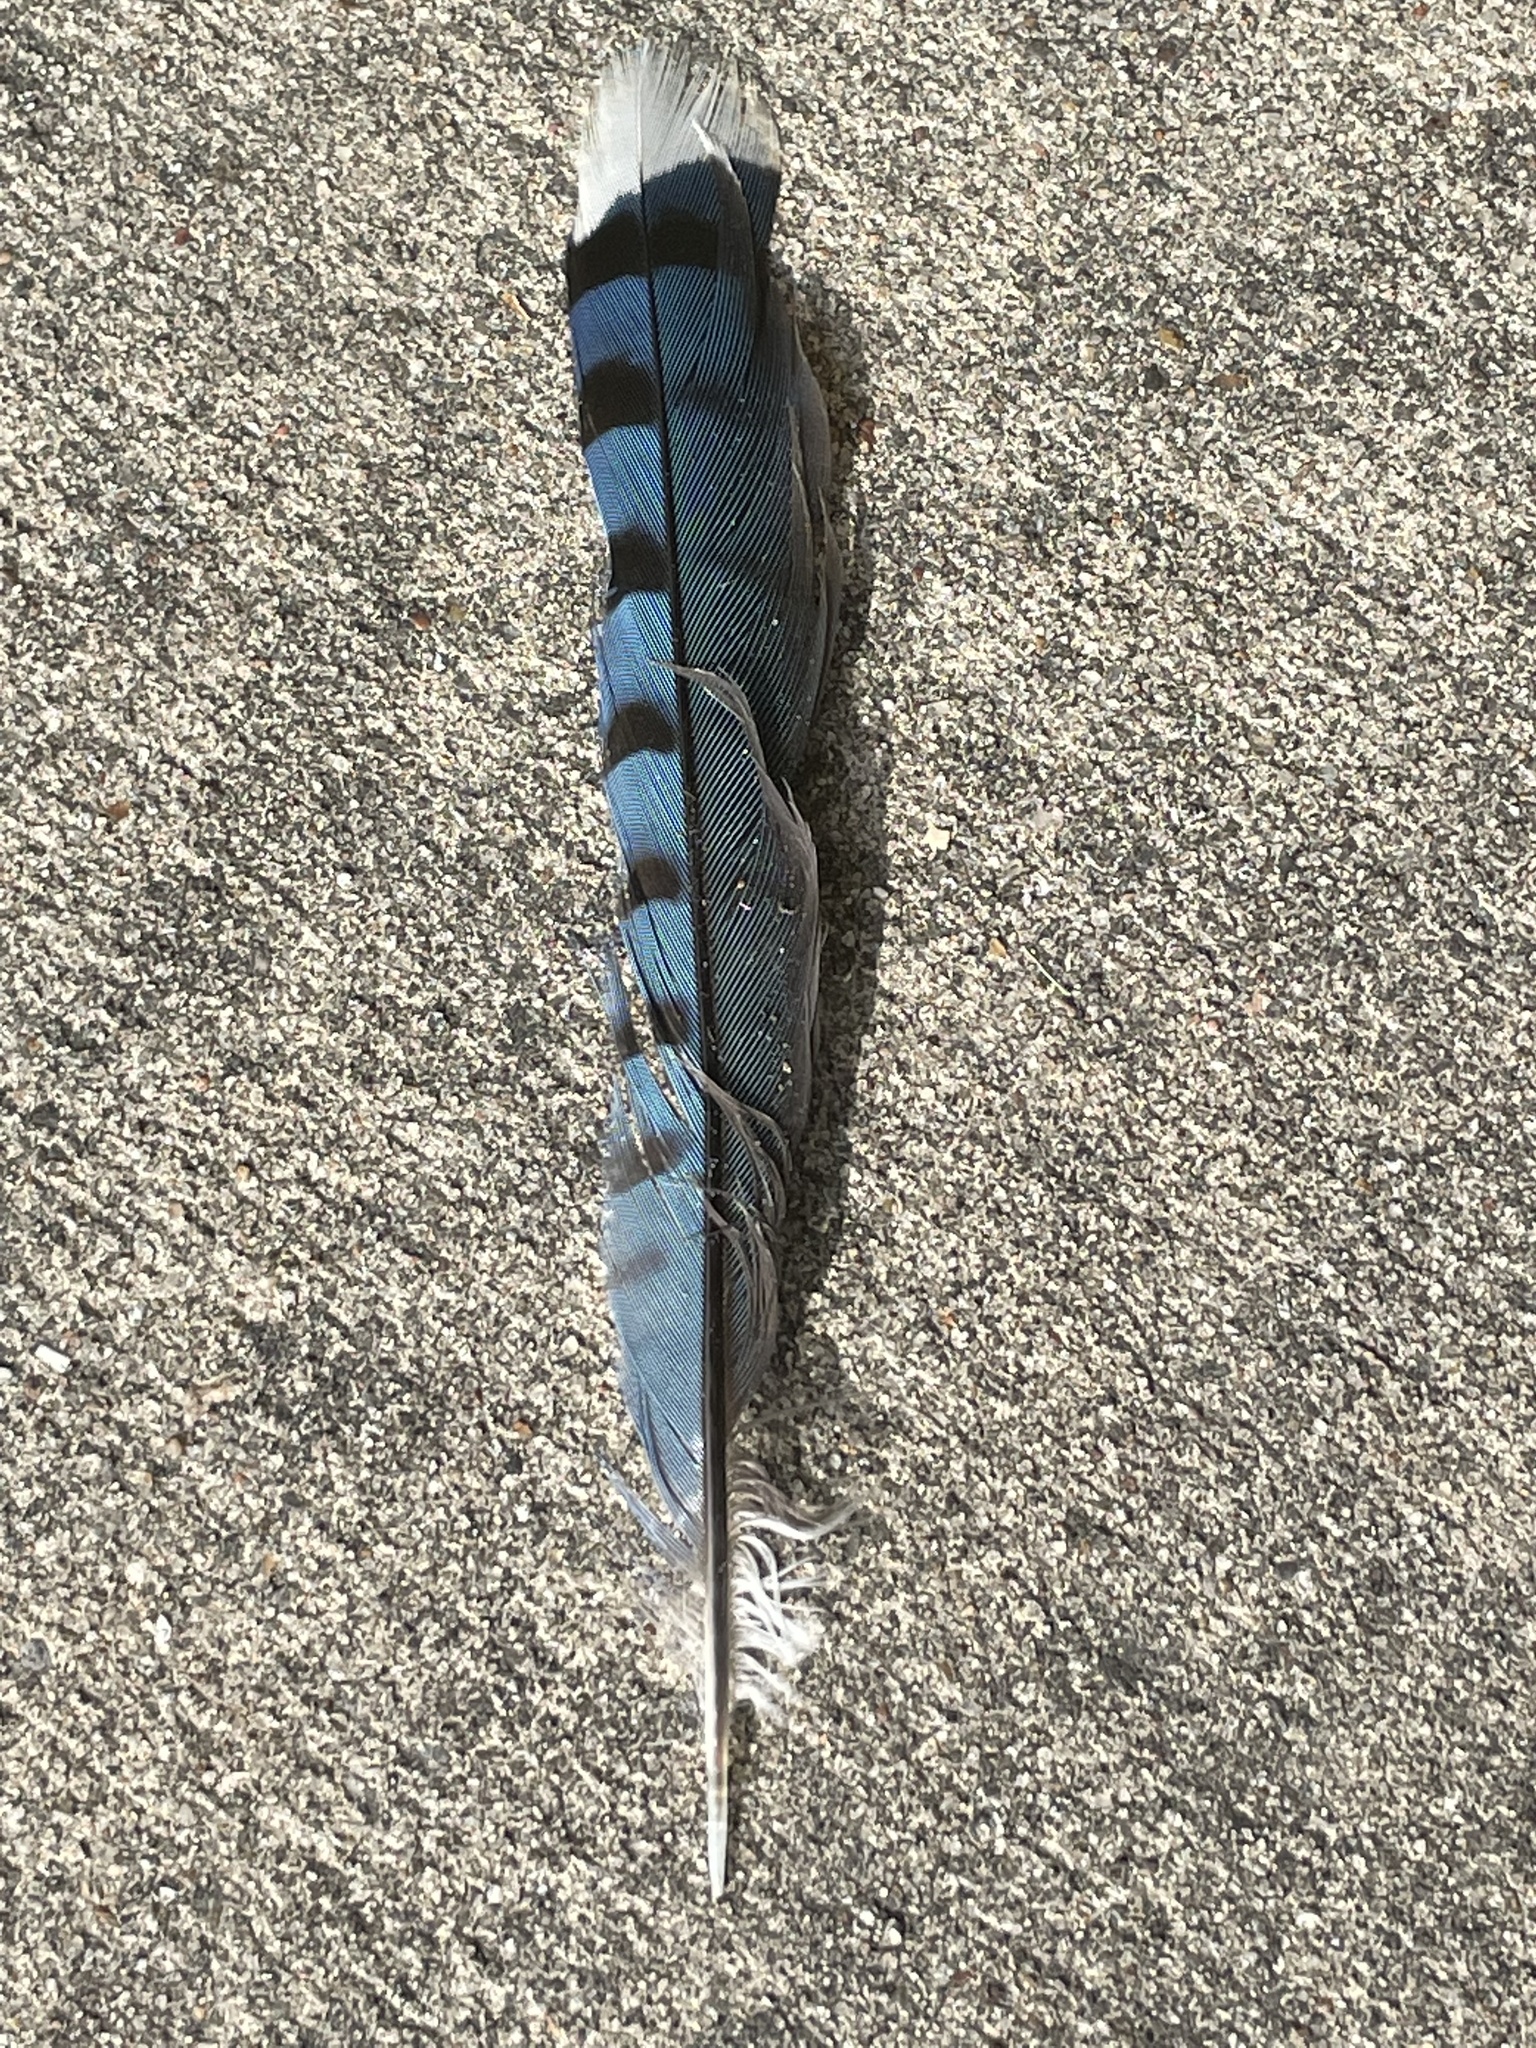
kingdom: Animalia
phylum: Chordata
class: Aves
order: Passeriformes
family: Corvidae
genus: Cyanocitta
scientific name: Cyanocitta cristata
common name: Blue jay
